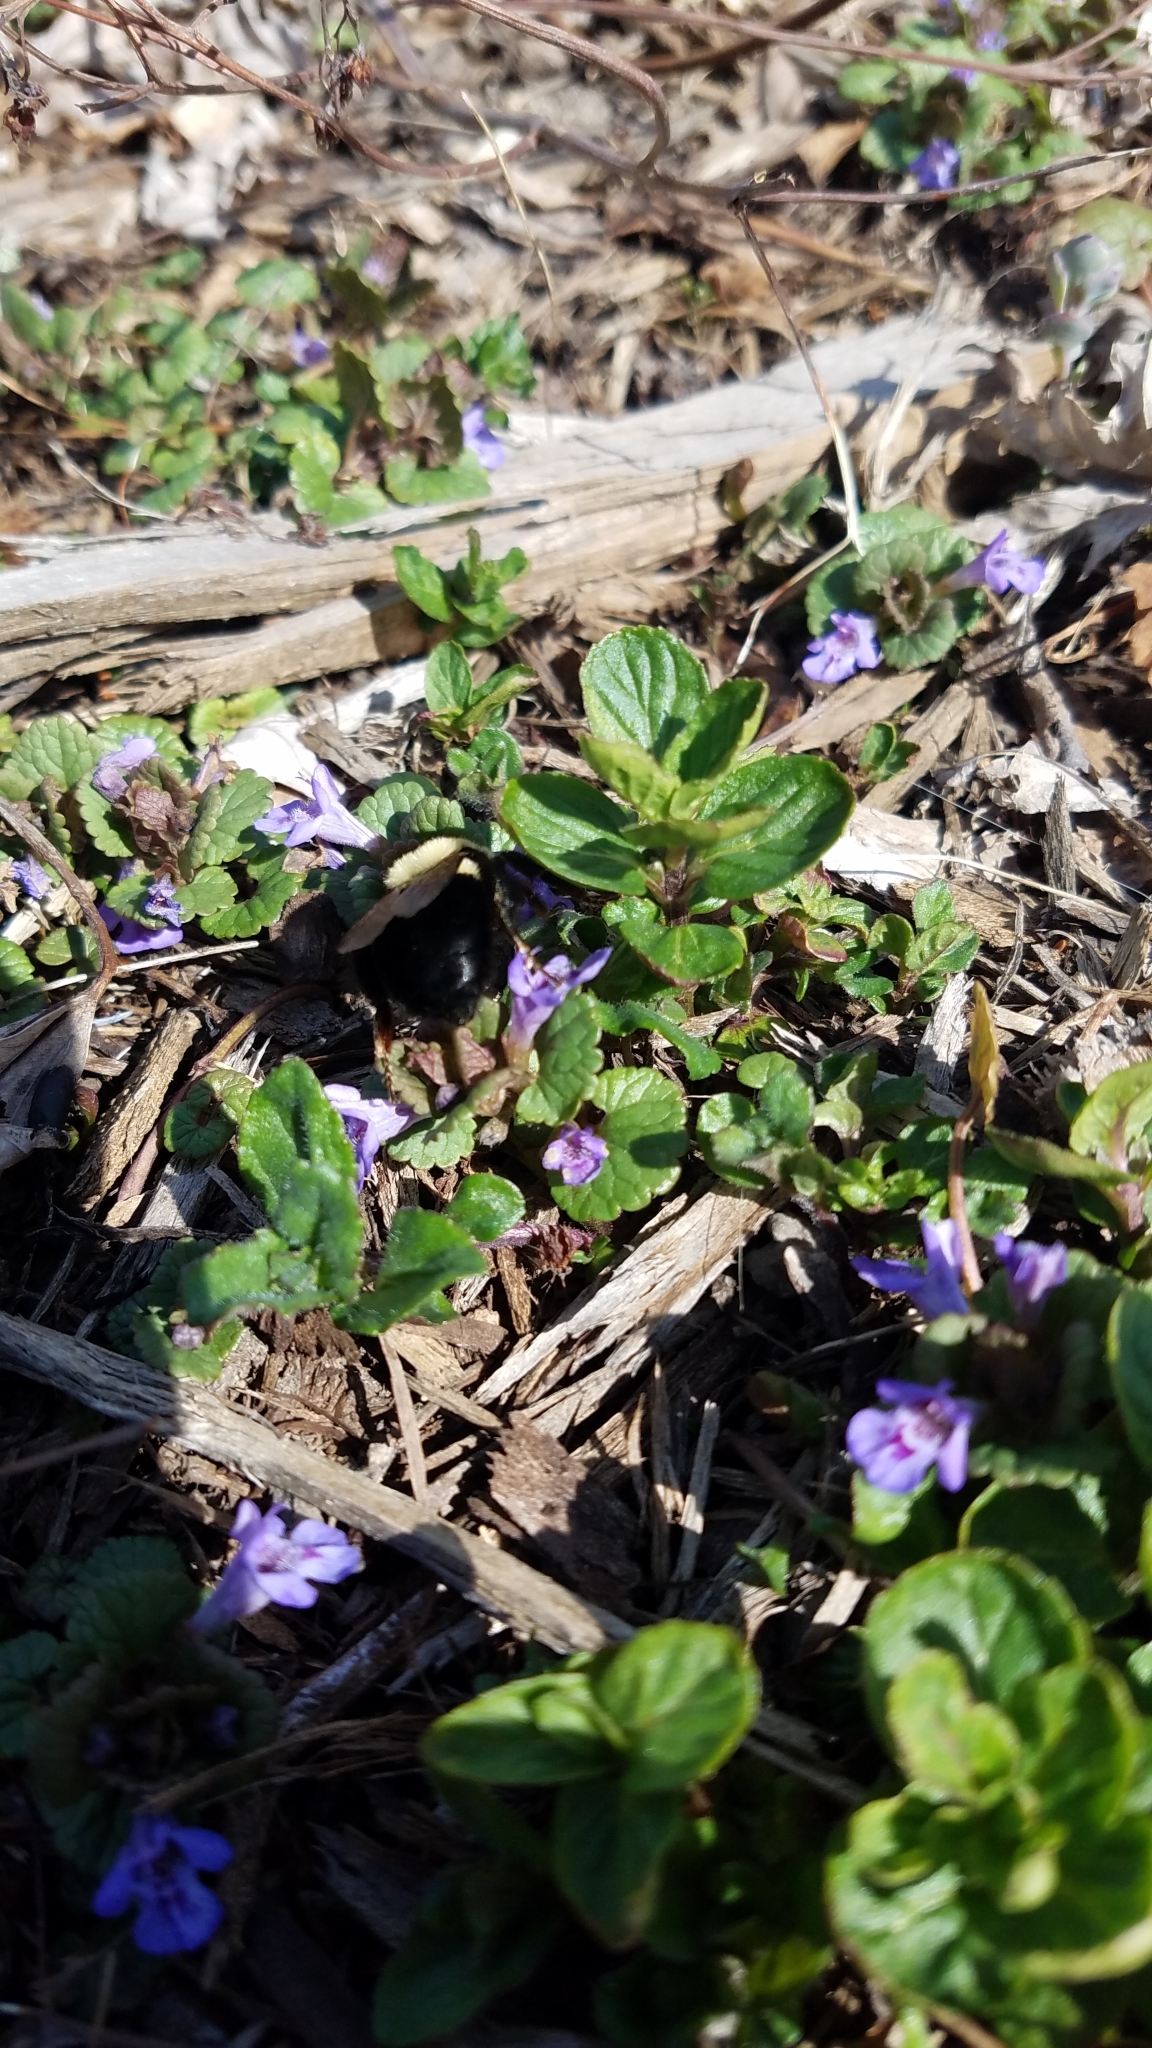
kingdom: Animalia
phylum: Arthropoda
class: Insecta
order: Hymenoptera
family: Apidae
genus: Bombus
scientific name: Bombus
